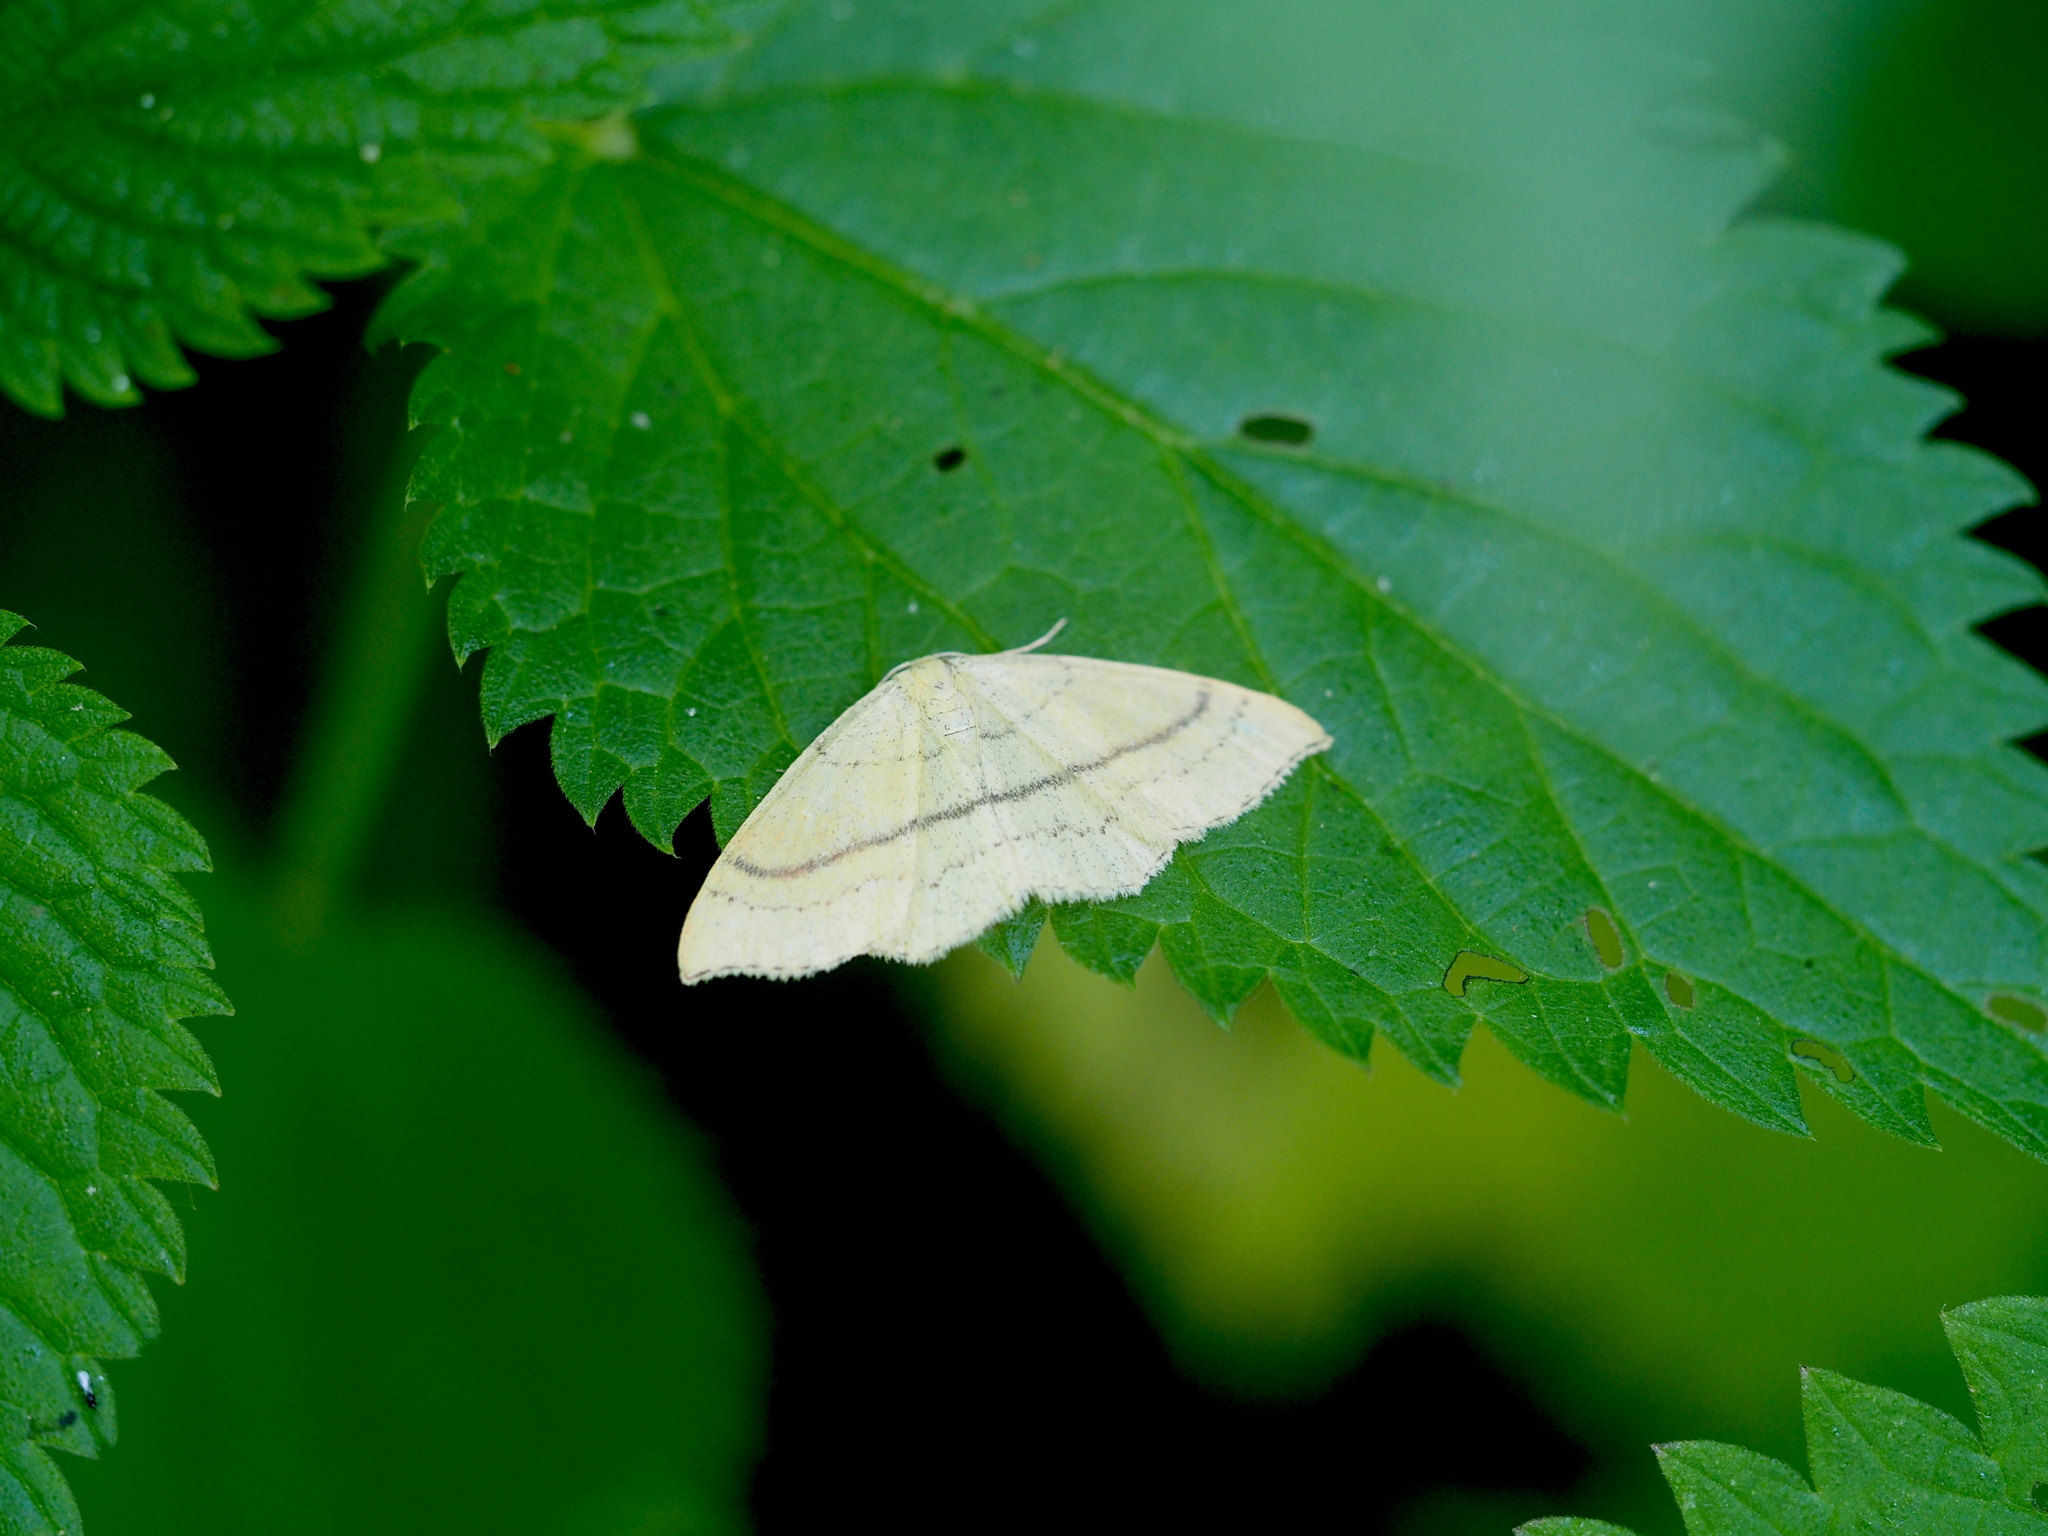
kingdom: Animalia
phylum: Arthropoda
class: Insecta
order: Lepidoptera
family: Geometridae
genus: Cyclophora
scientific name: Cyclophora linearia
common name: Clay triple-lines
